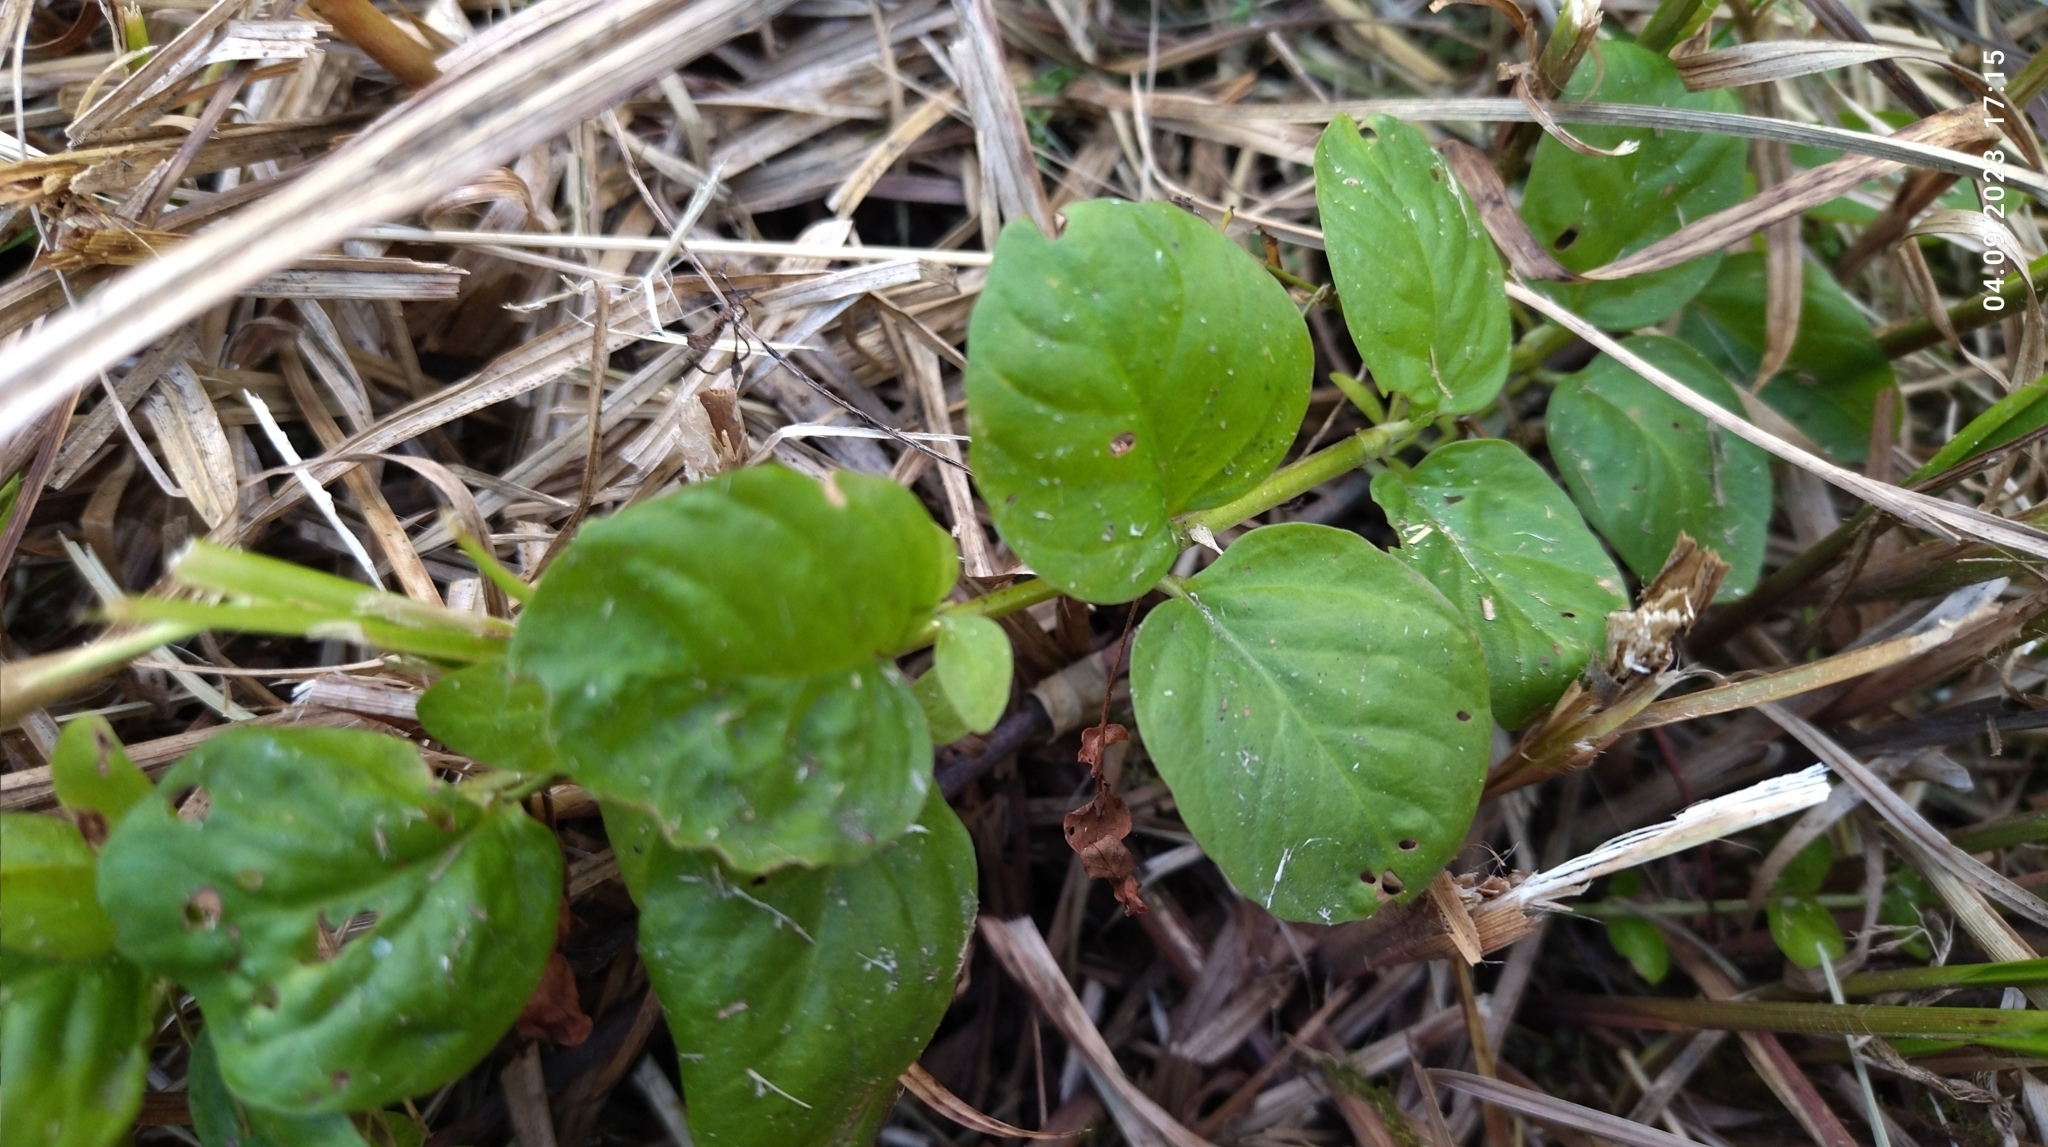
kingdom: Plantae
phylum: Tracheophyta
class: Magnoliopsida
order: Ericales
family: Primulaceae
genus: Lysimachia
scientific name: Lysimachia nummularia
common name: Moneywort
